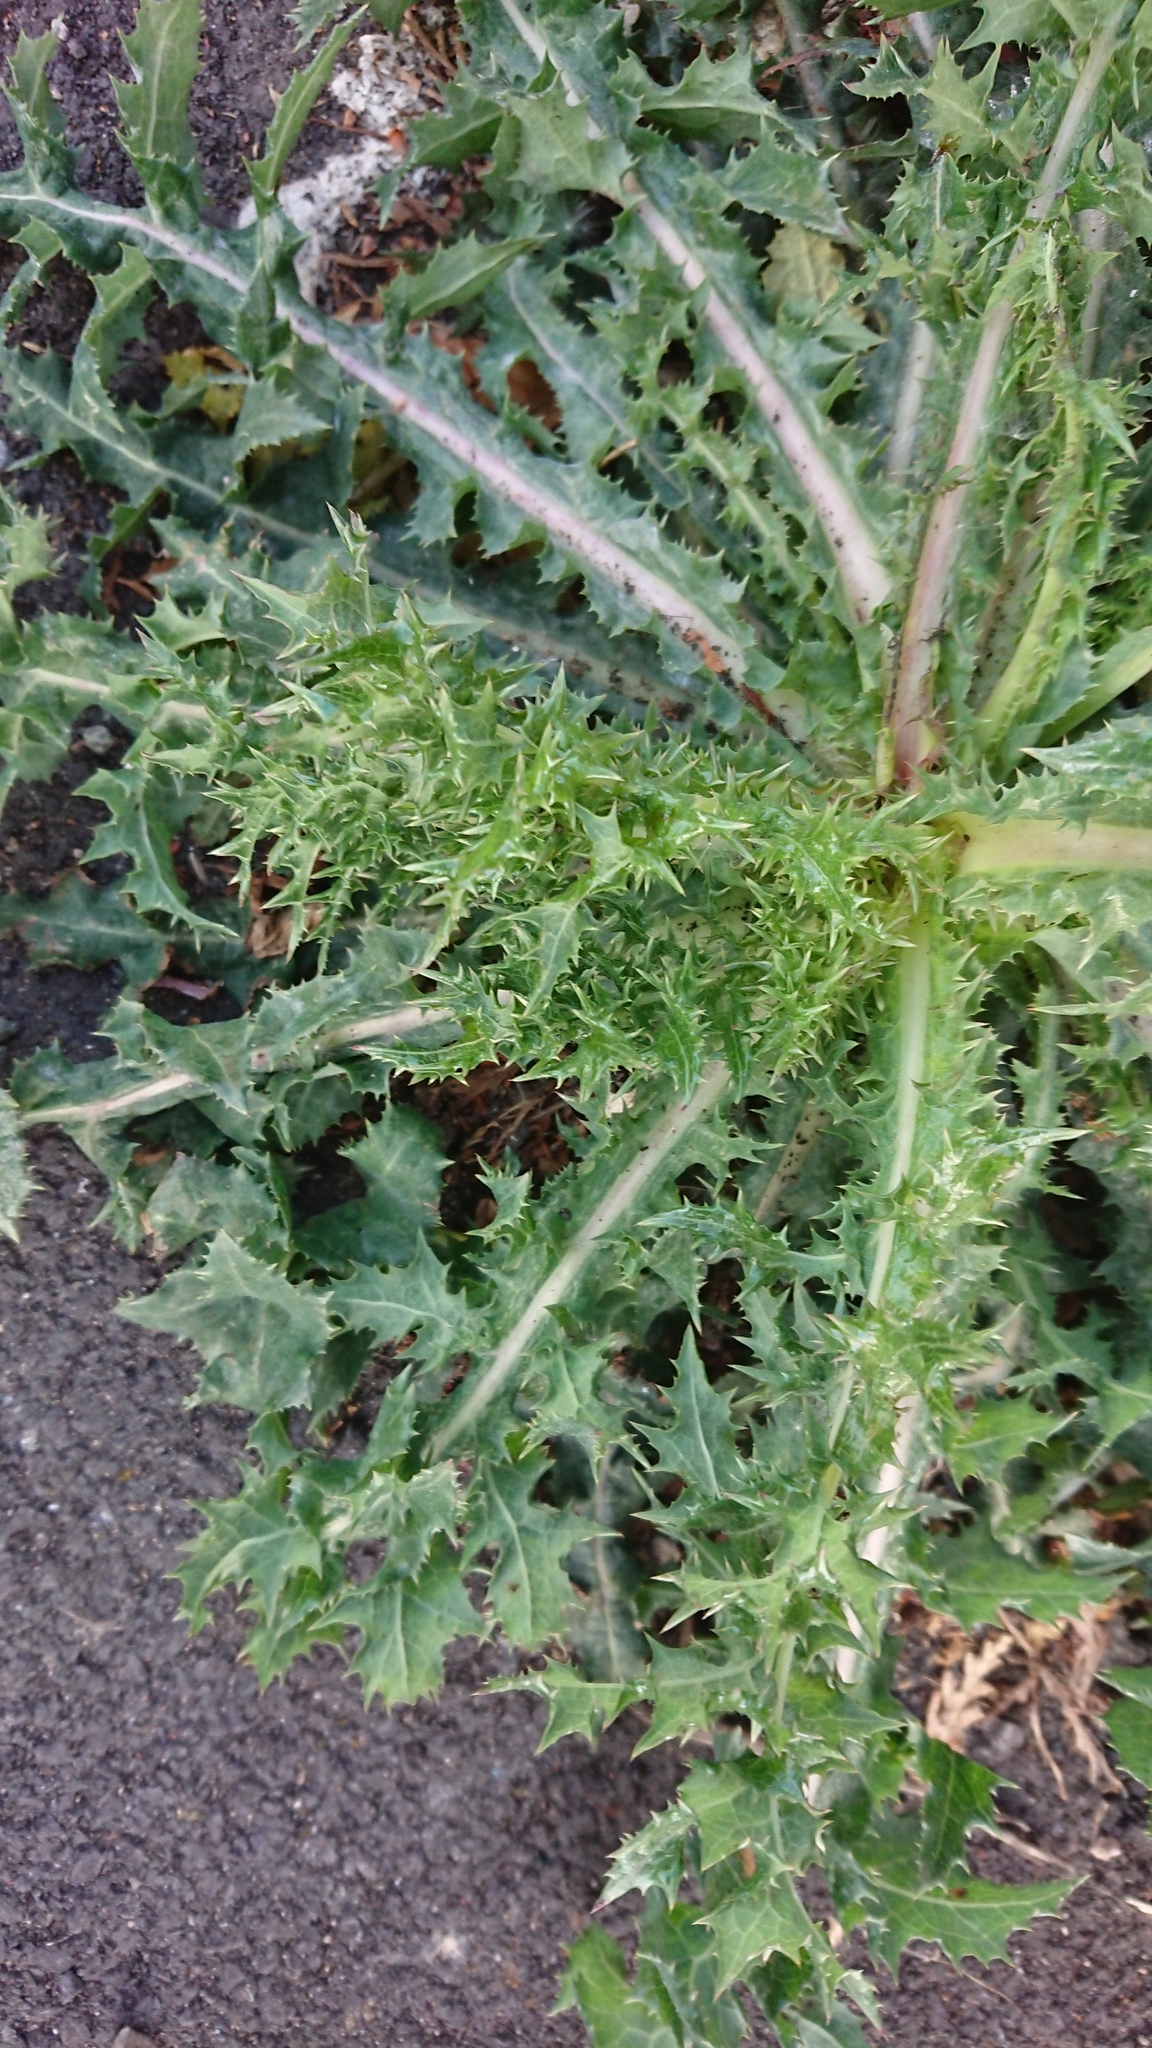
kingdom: Plantae
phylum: Tracheophyta
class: Magnoliopsida
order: Asterales
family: Asteraceae
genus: Cirsium
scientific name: Cirsium vulgare
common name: Bull thistle
